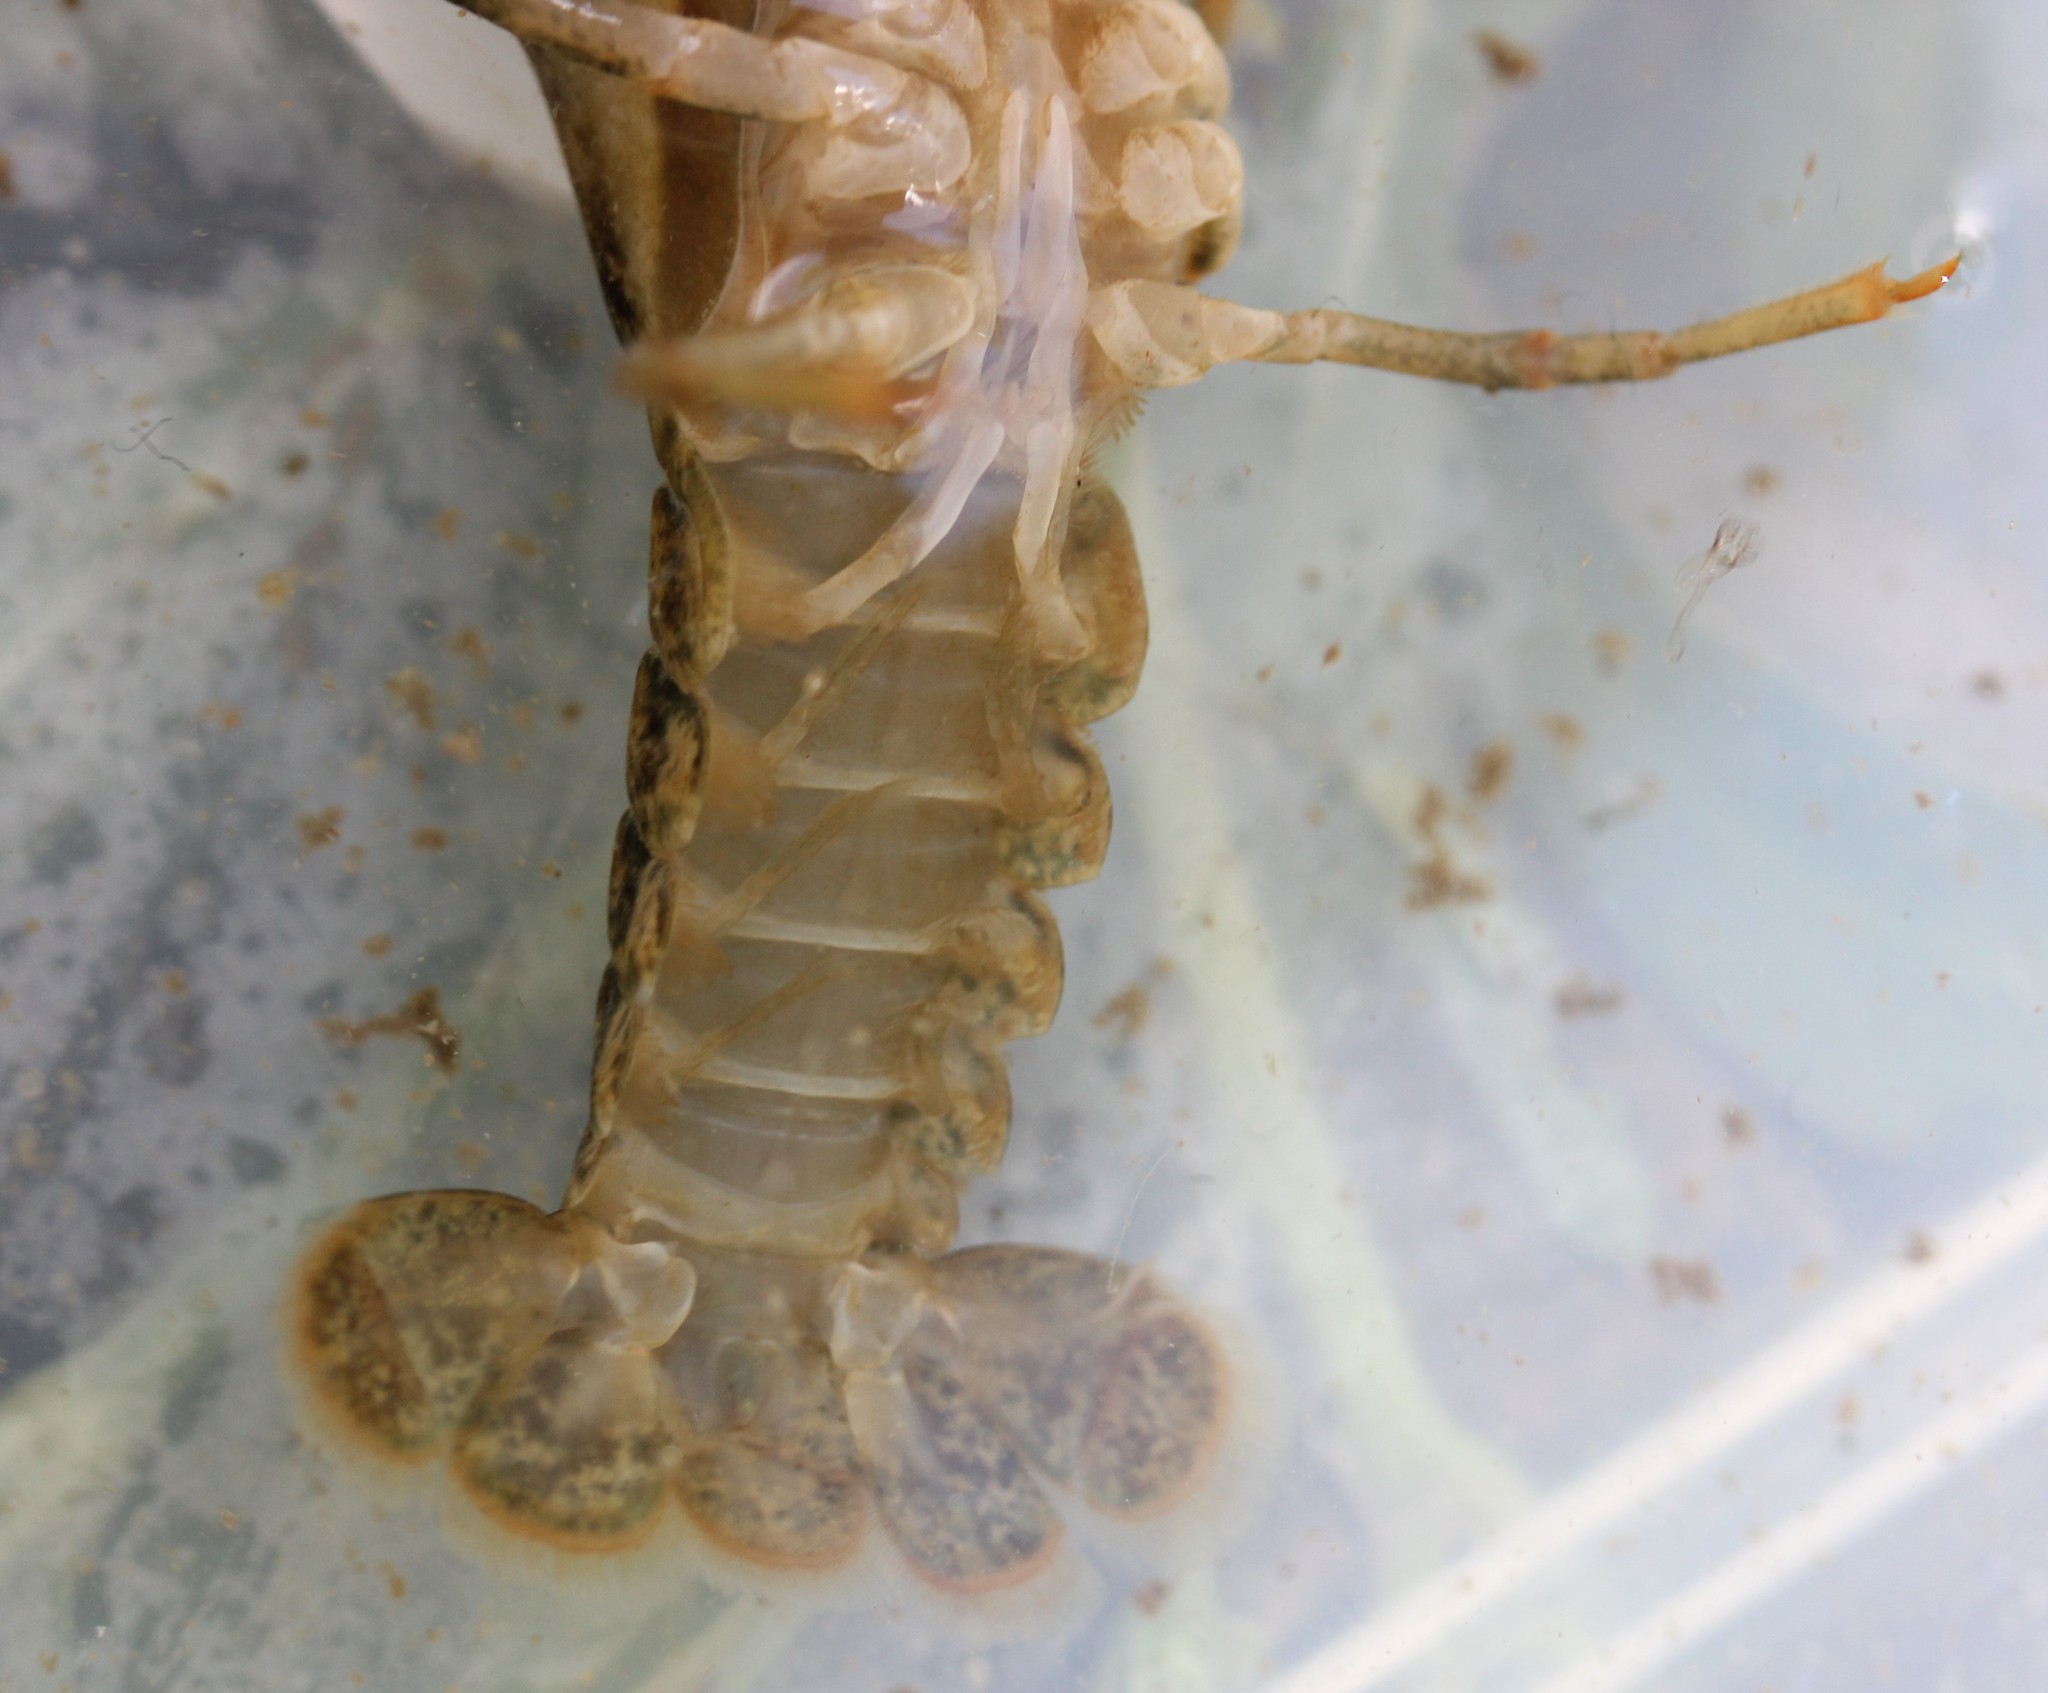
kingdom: Animalia
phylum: Arthropoda
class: Malacostraca
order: Decapoda
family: Cambaridae
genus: Faxonius
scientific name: Faxonius propinquus
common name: Northern clearwater crayfish
